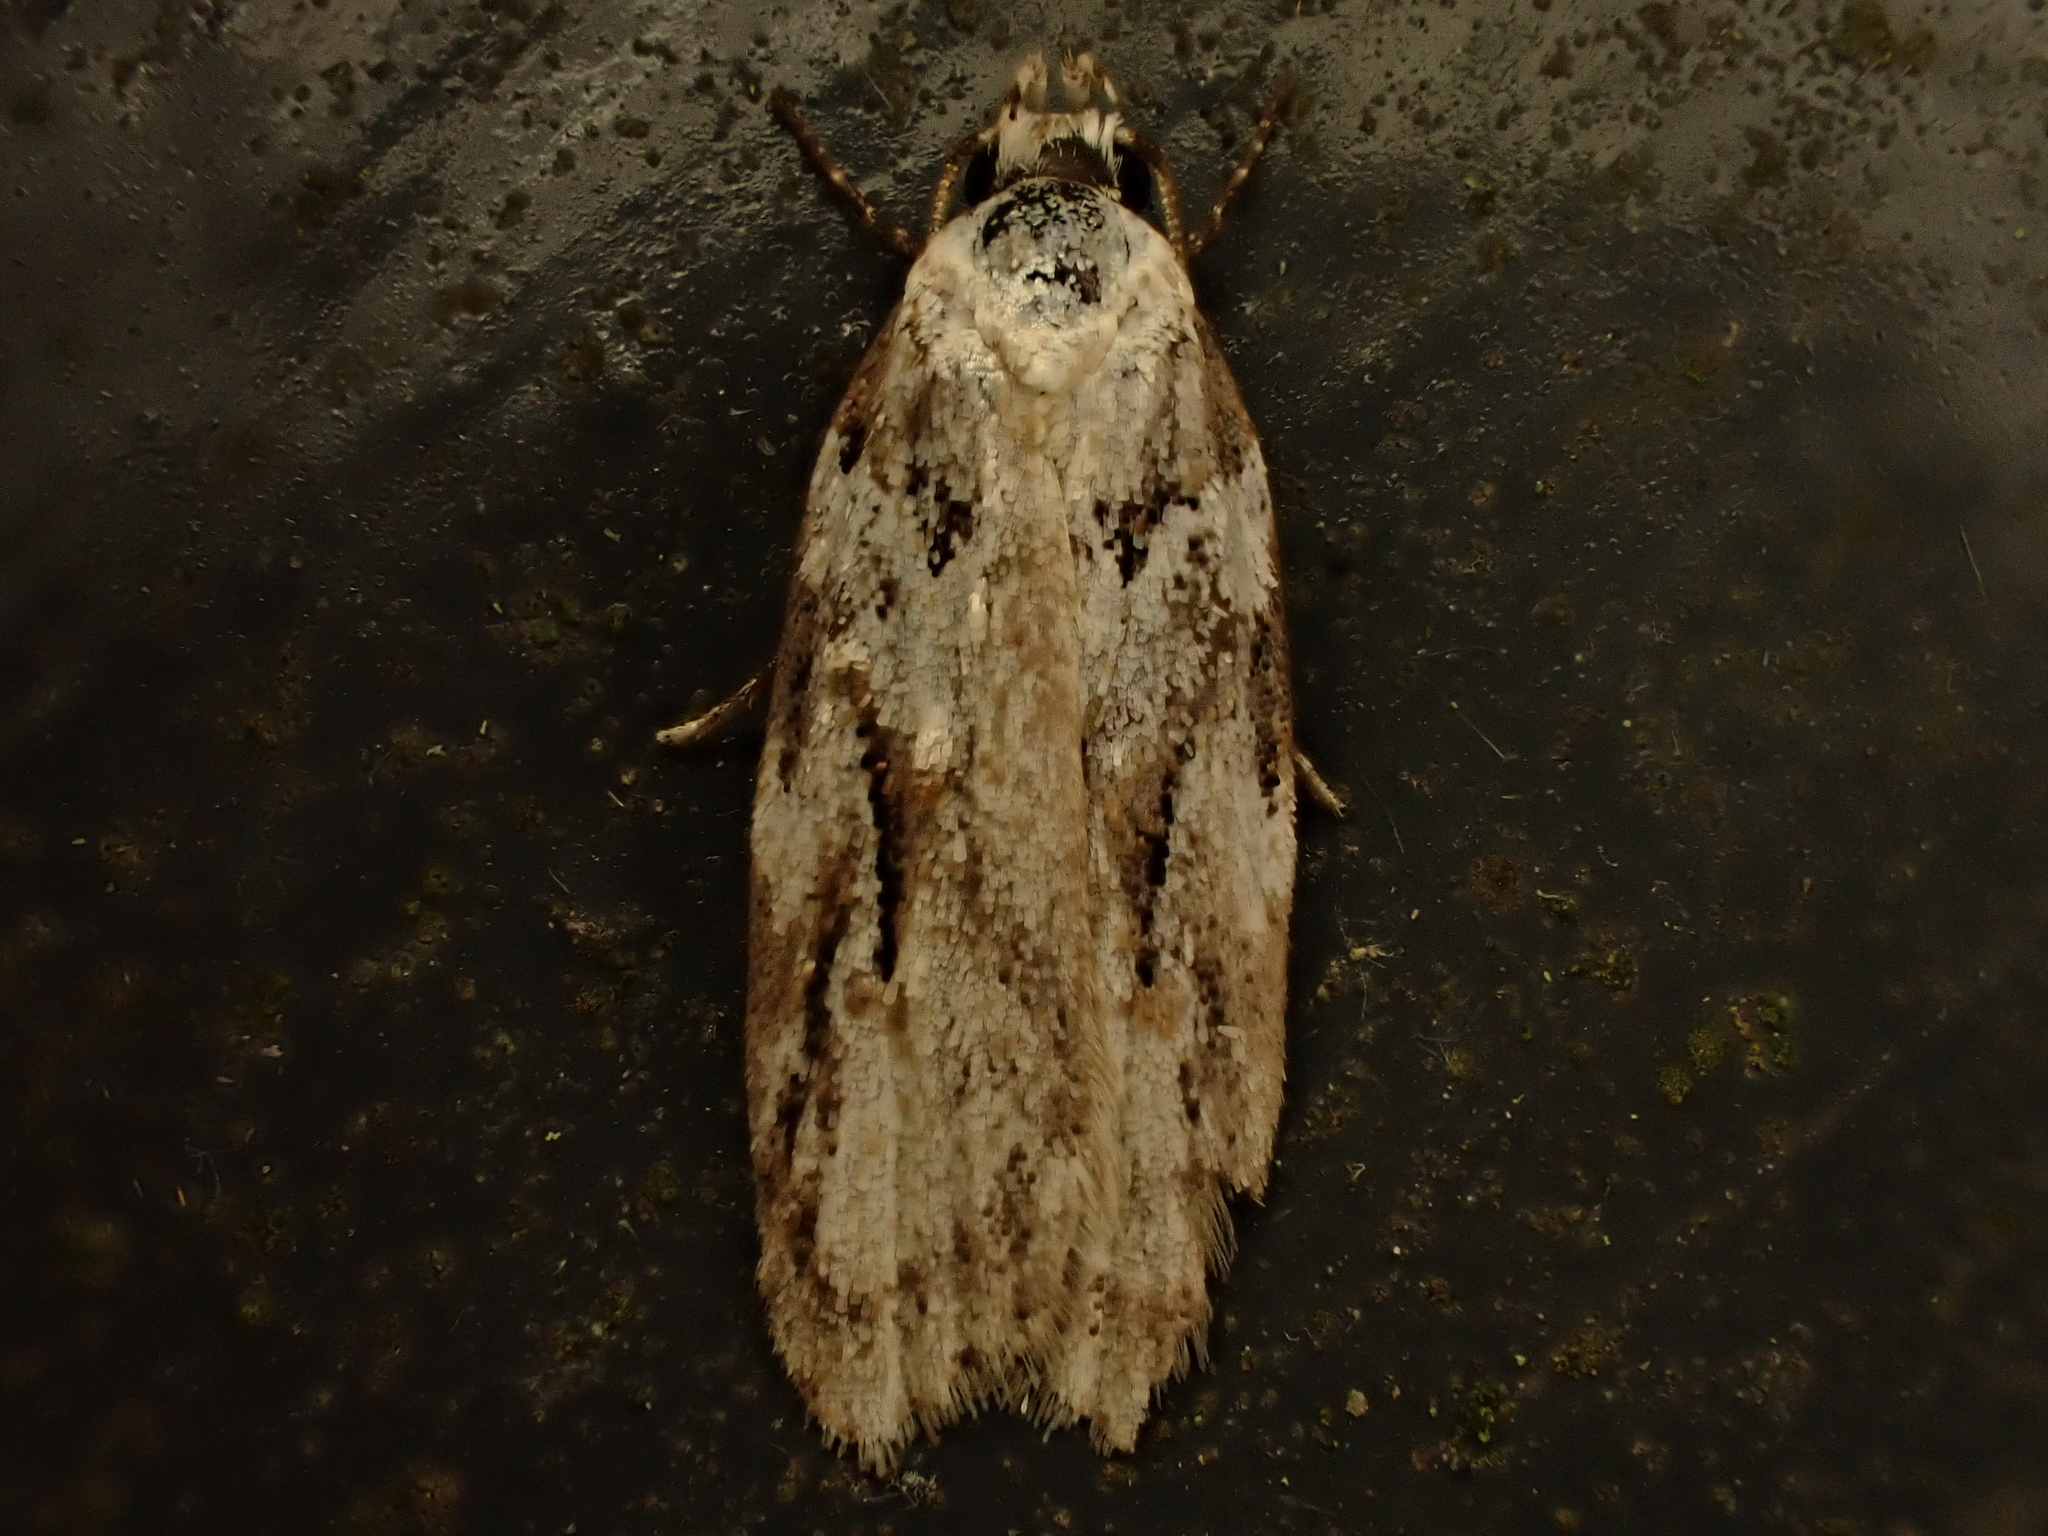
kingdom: Animalia
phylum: Arthropoda
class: Insecta
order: Lepidoptera
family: Oecophoridae
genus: Izatha
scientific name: Izatha mesoschista
